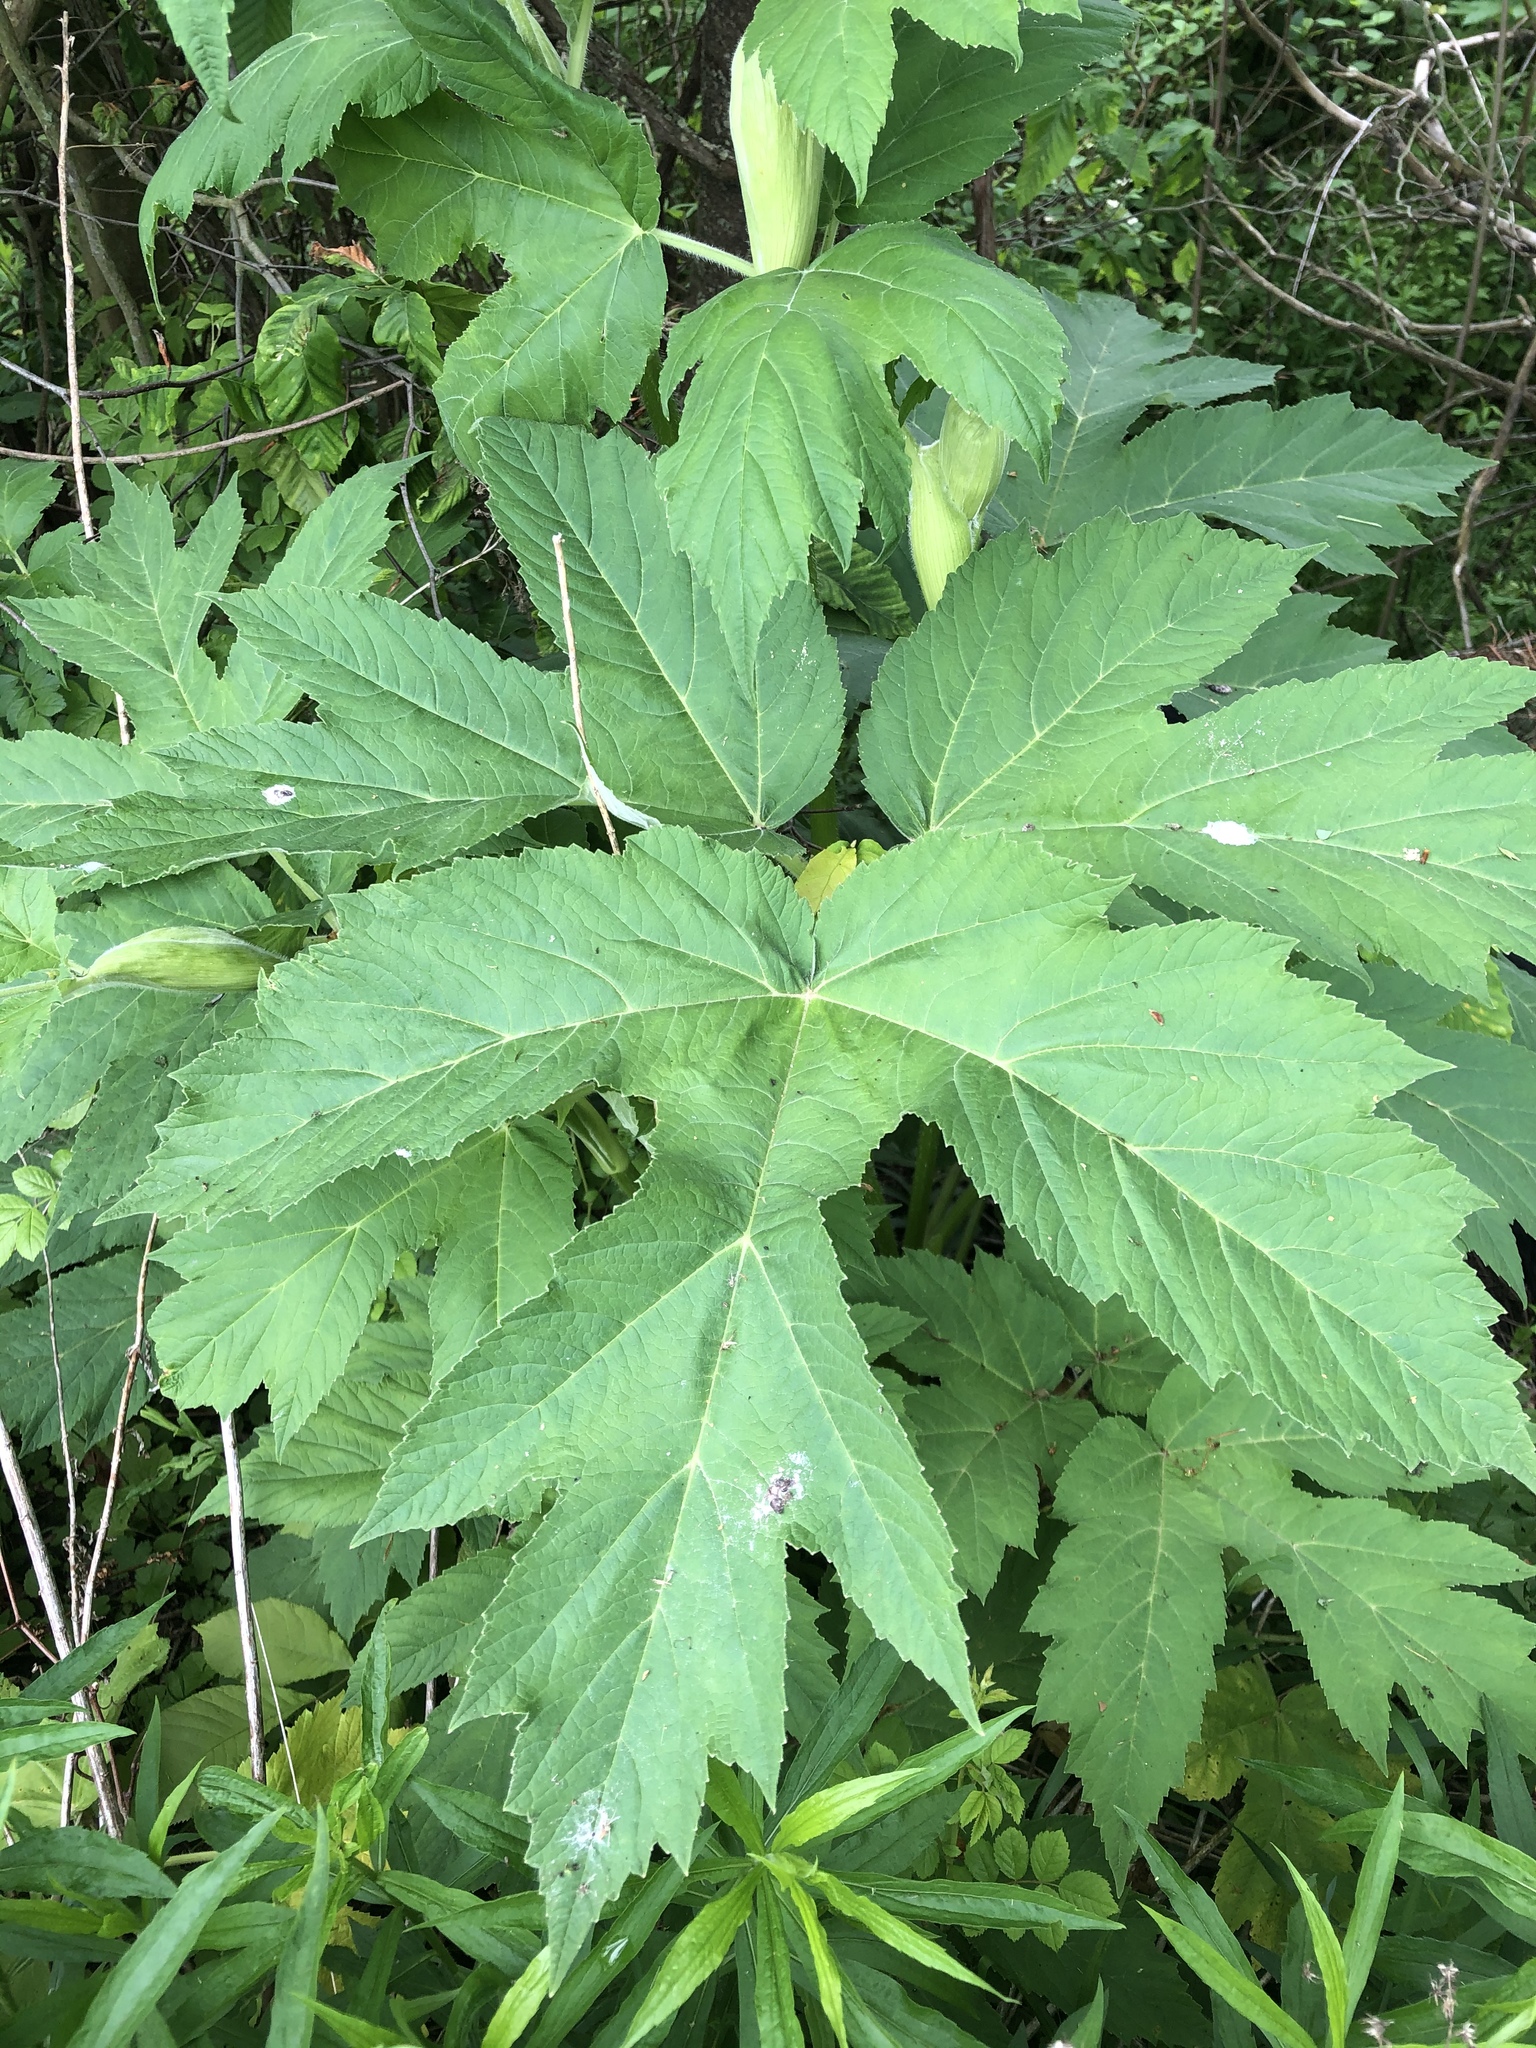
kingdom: Plantae
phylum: Tracheophyta
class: Magnoliopsida
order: Apiales
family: Apiaceae
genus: Heracleum
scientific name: Heracleum maximum
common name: American cow parsnip
